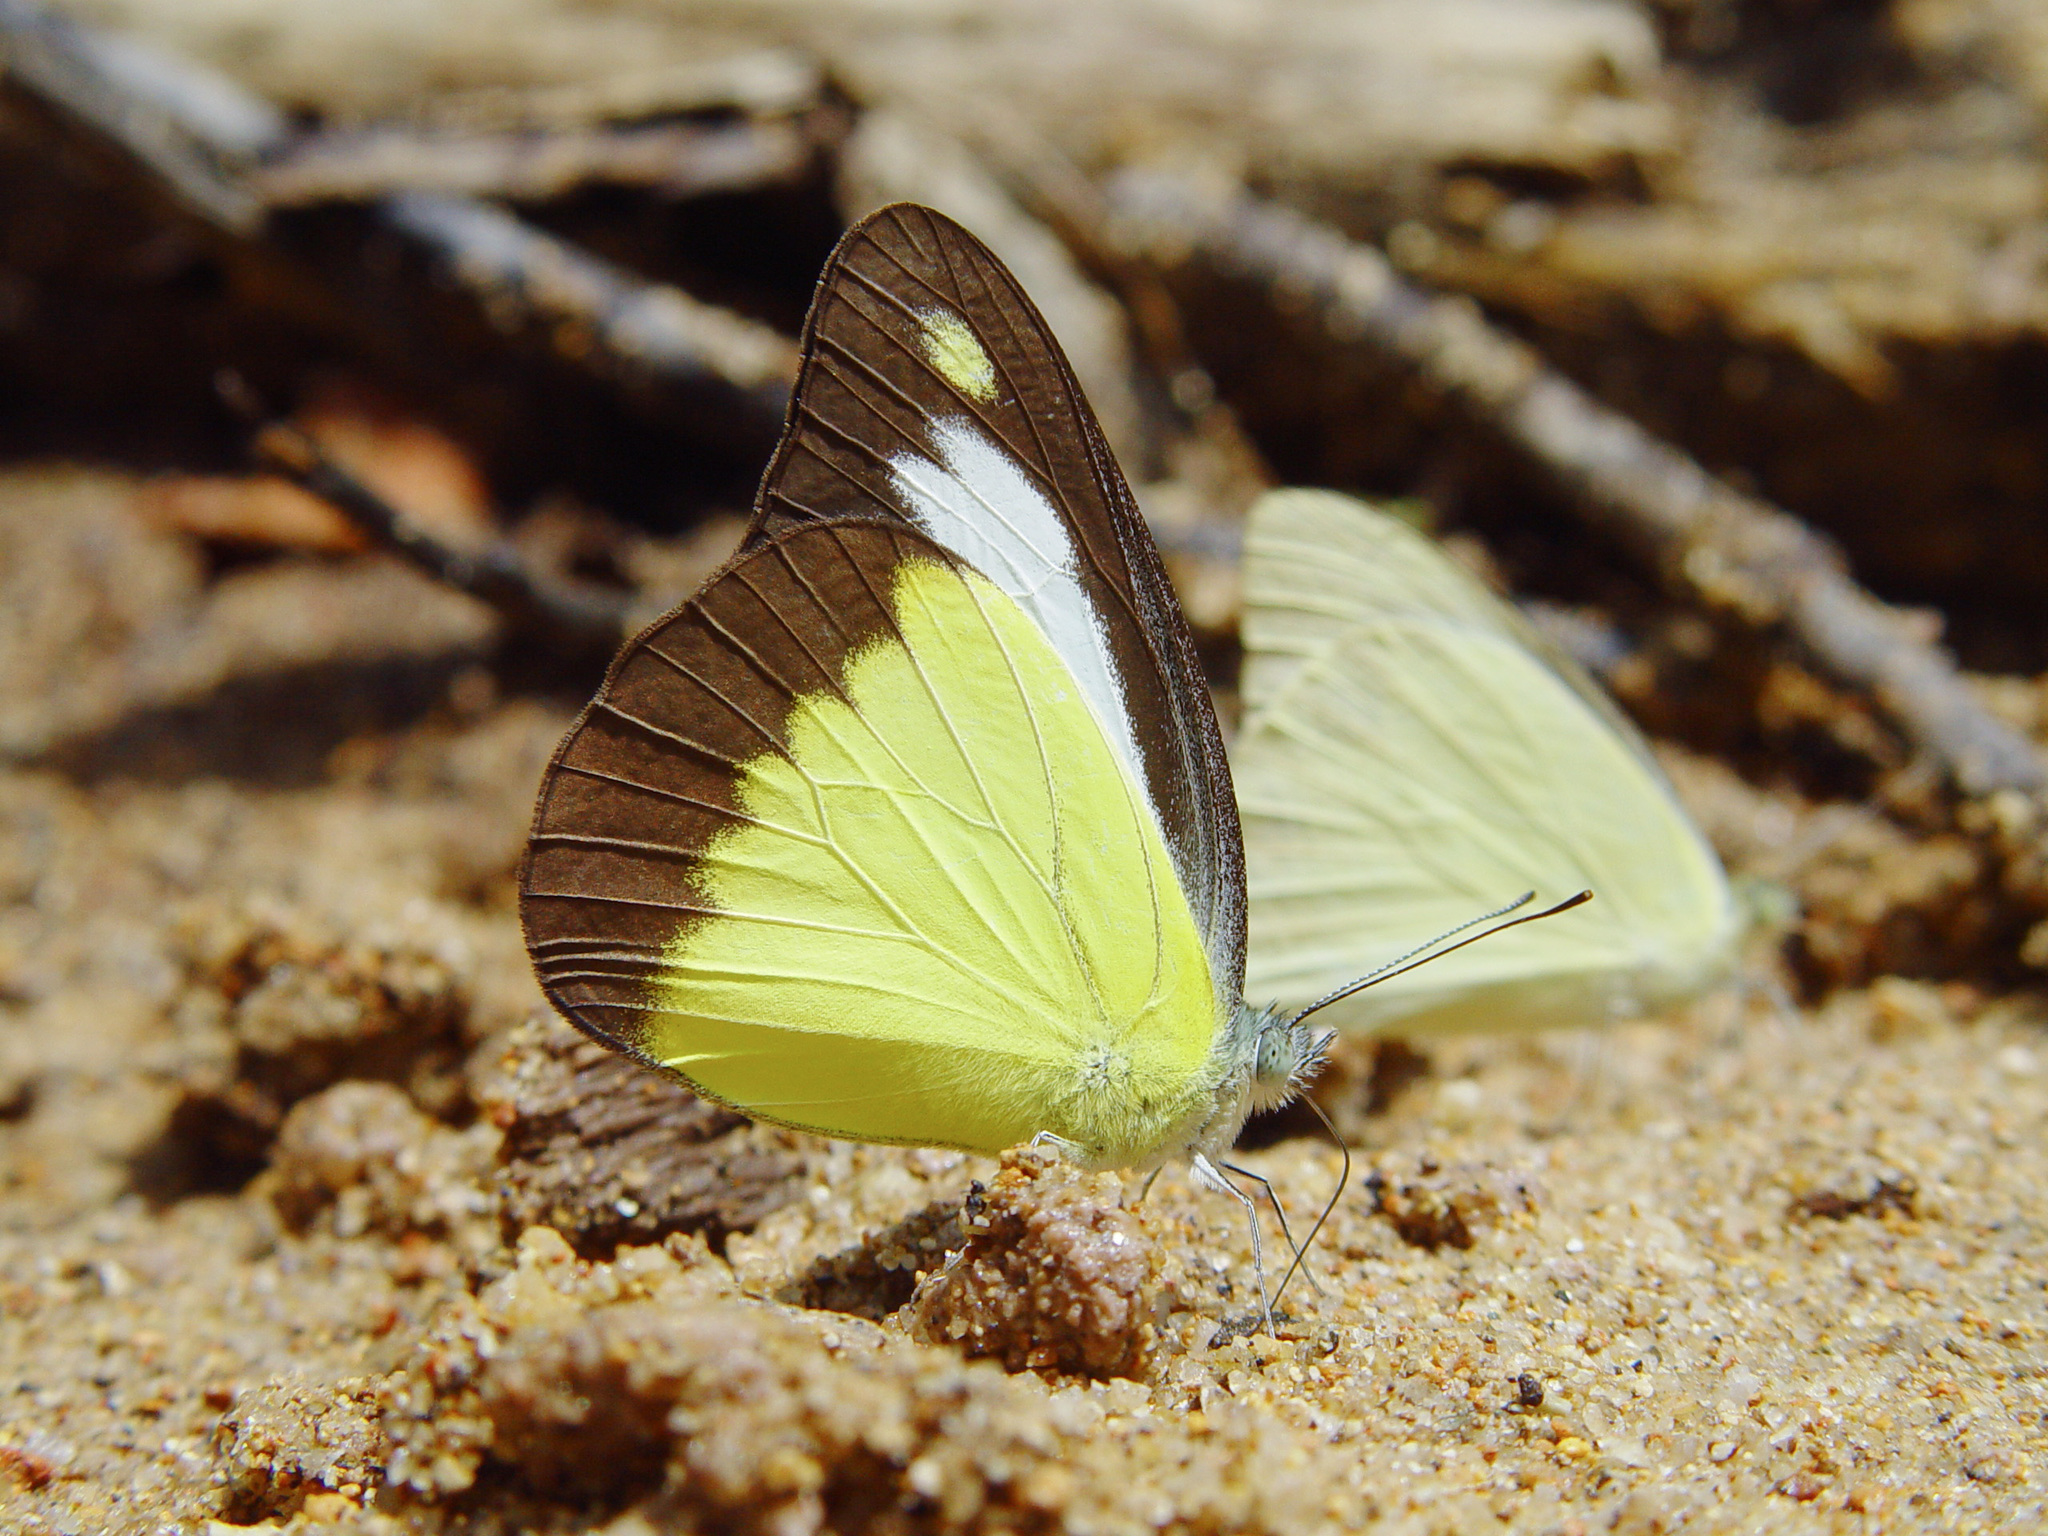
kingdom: Animalia
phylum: Arthropoda
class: Insecta
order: Lepidoptera
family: Pieridae
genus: Appias
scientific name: Appias lyncida
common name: Chocolate albatross
